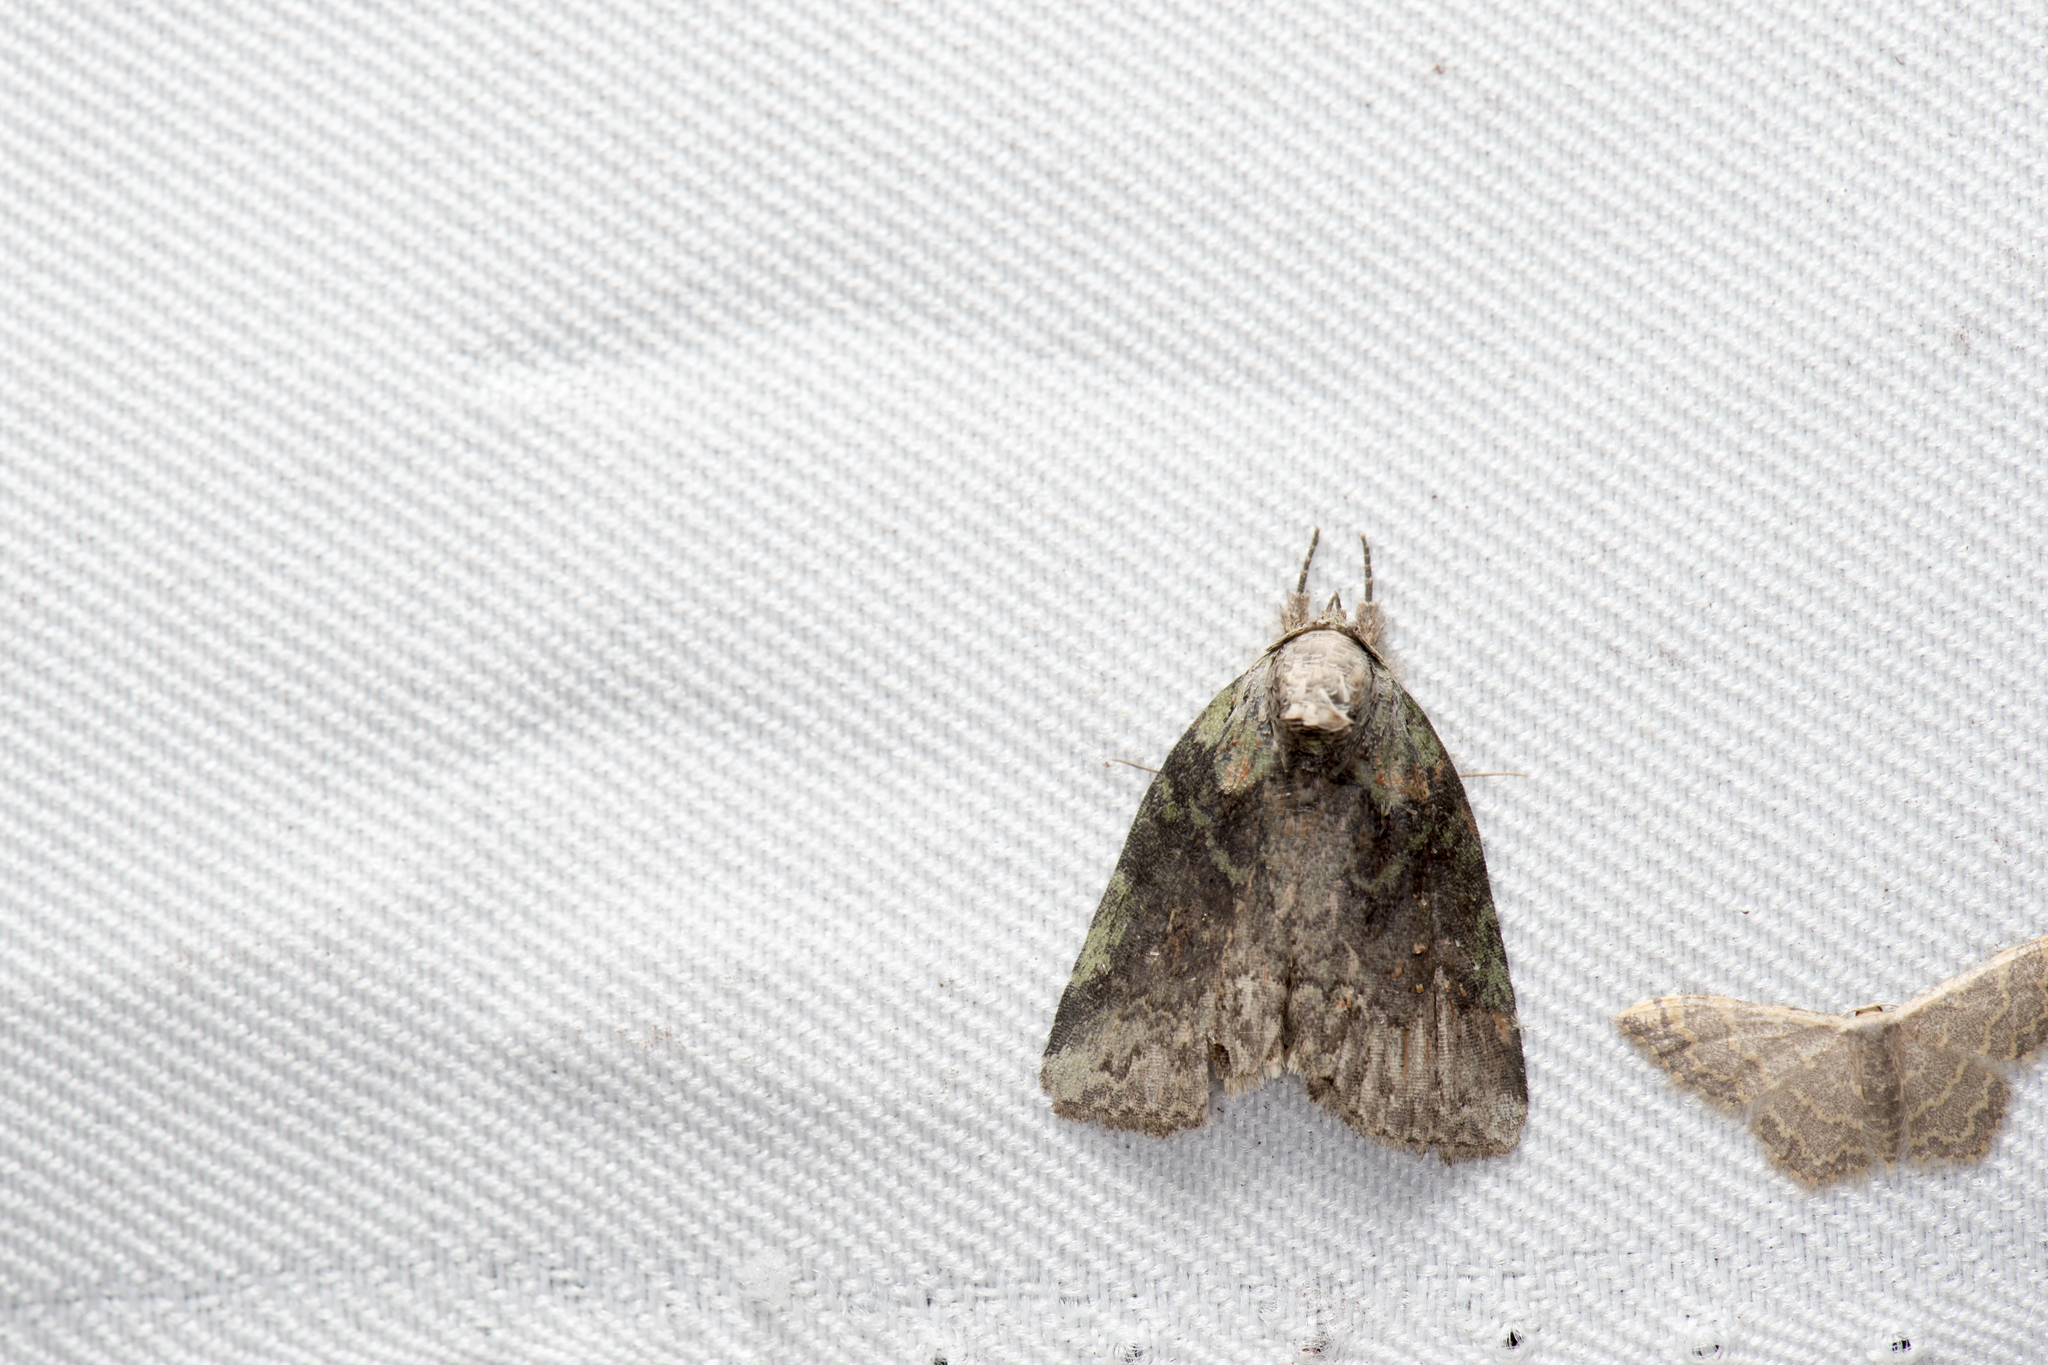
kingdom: Animalia
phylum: Arthropoda
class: Insecta
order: Lepidoptera
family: Noctuidae
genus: Stenoloba
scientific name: Stenoloba manleyi
